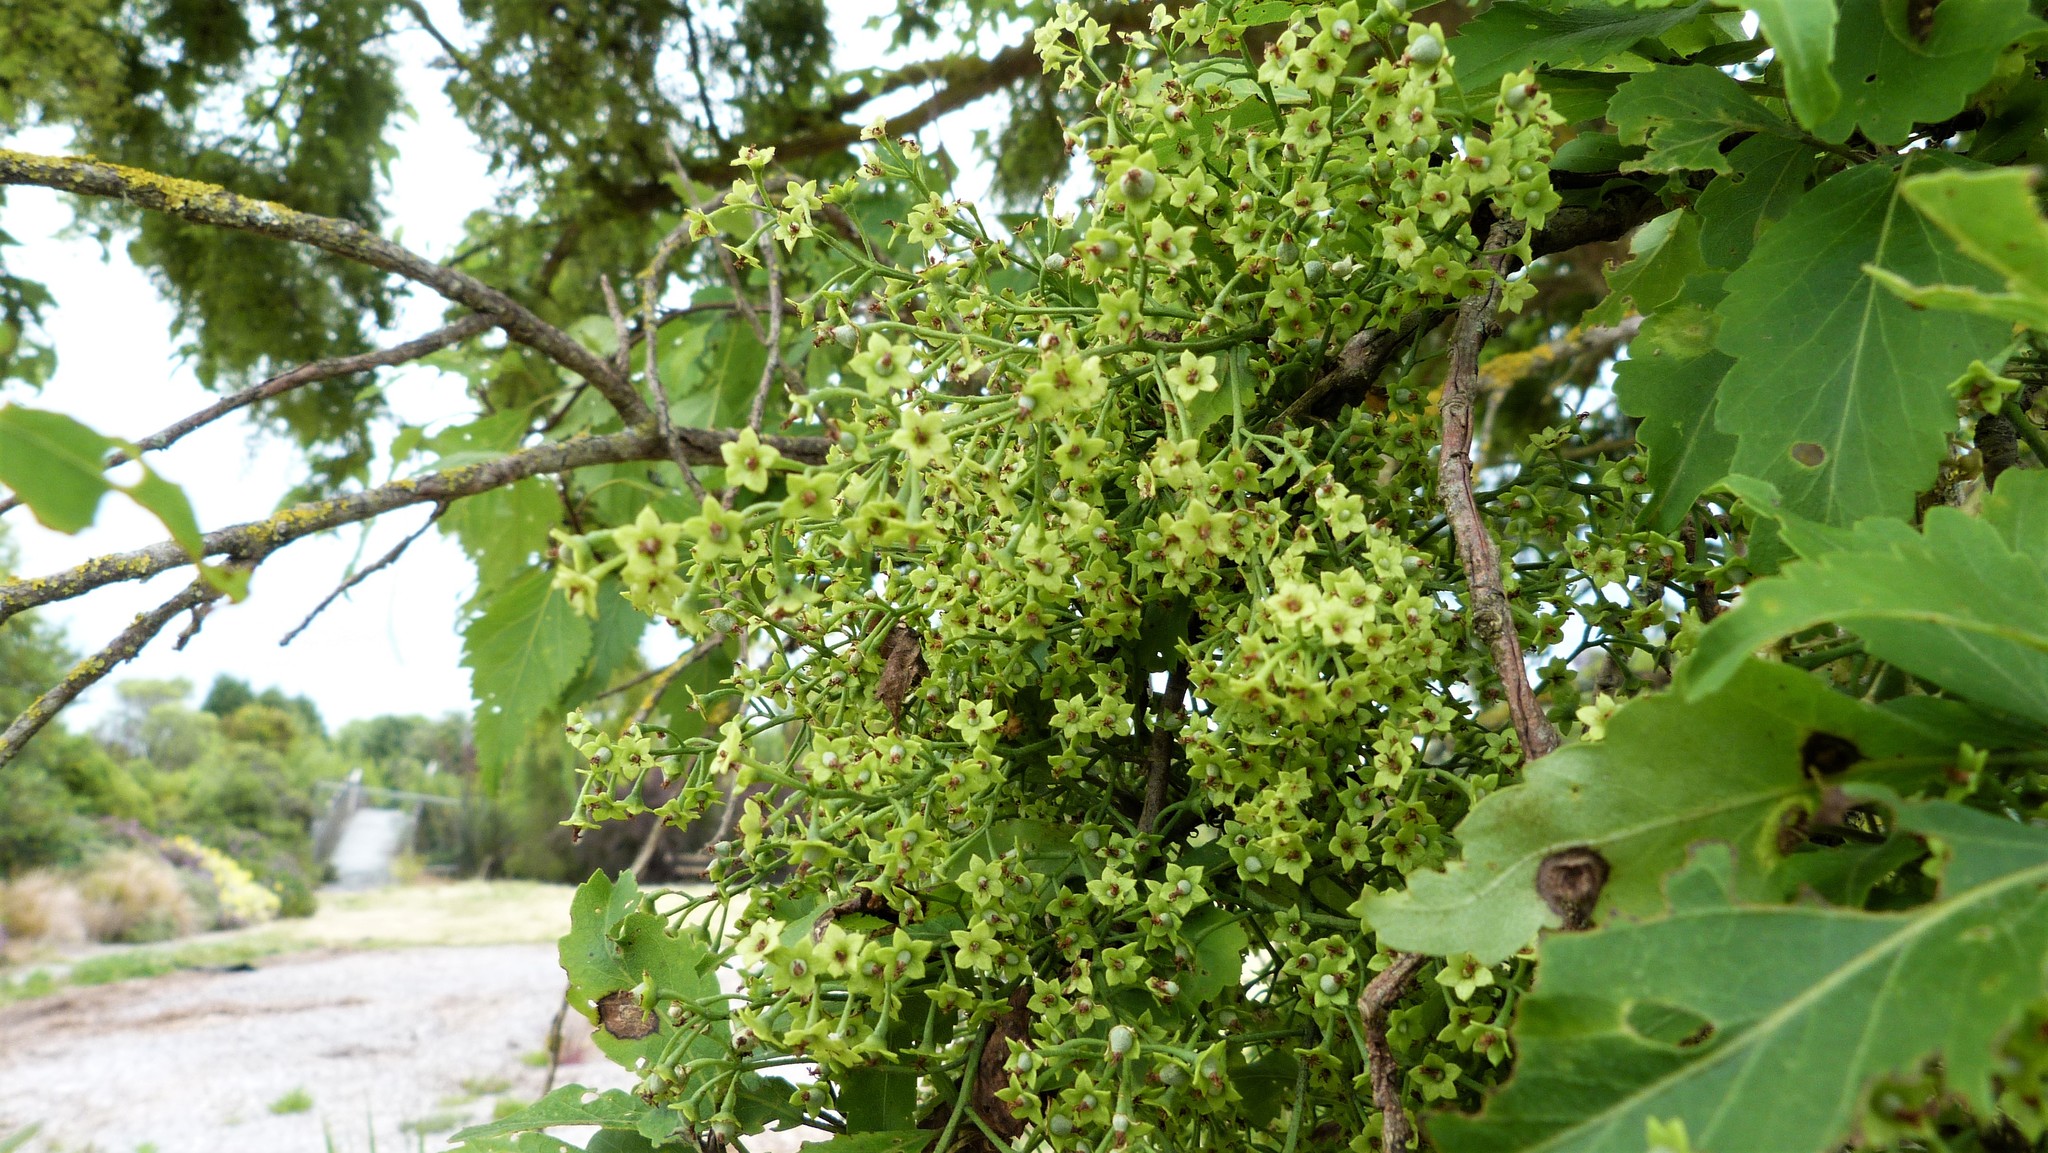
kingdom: Plantae
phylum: Tracheophyta
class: Magnoliopsida
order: Malvales
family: Malvaceae
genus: Plagianthus
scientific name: Plagianthus regius
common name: Manatu
